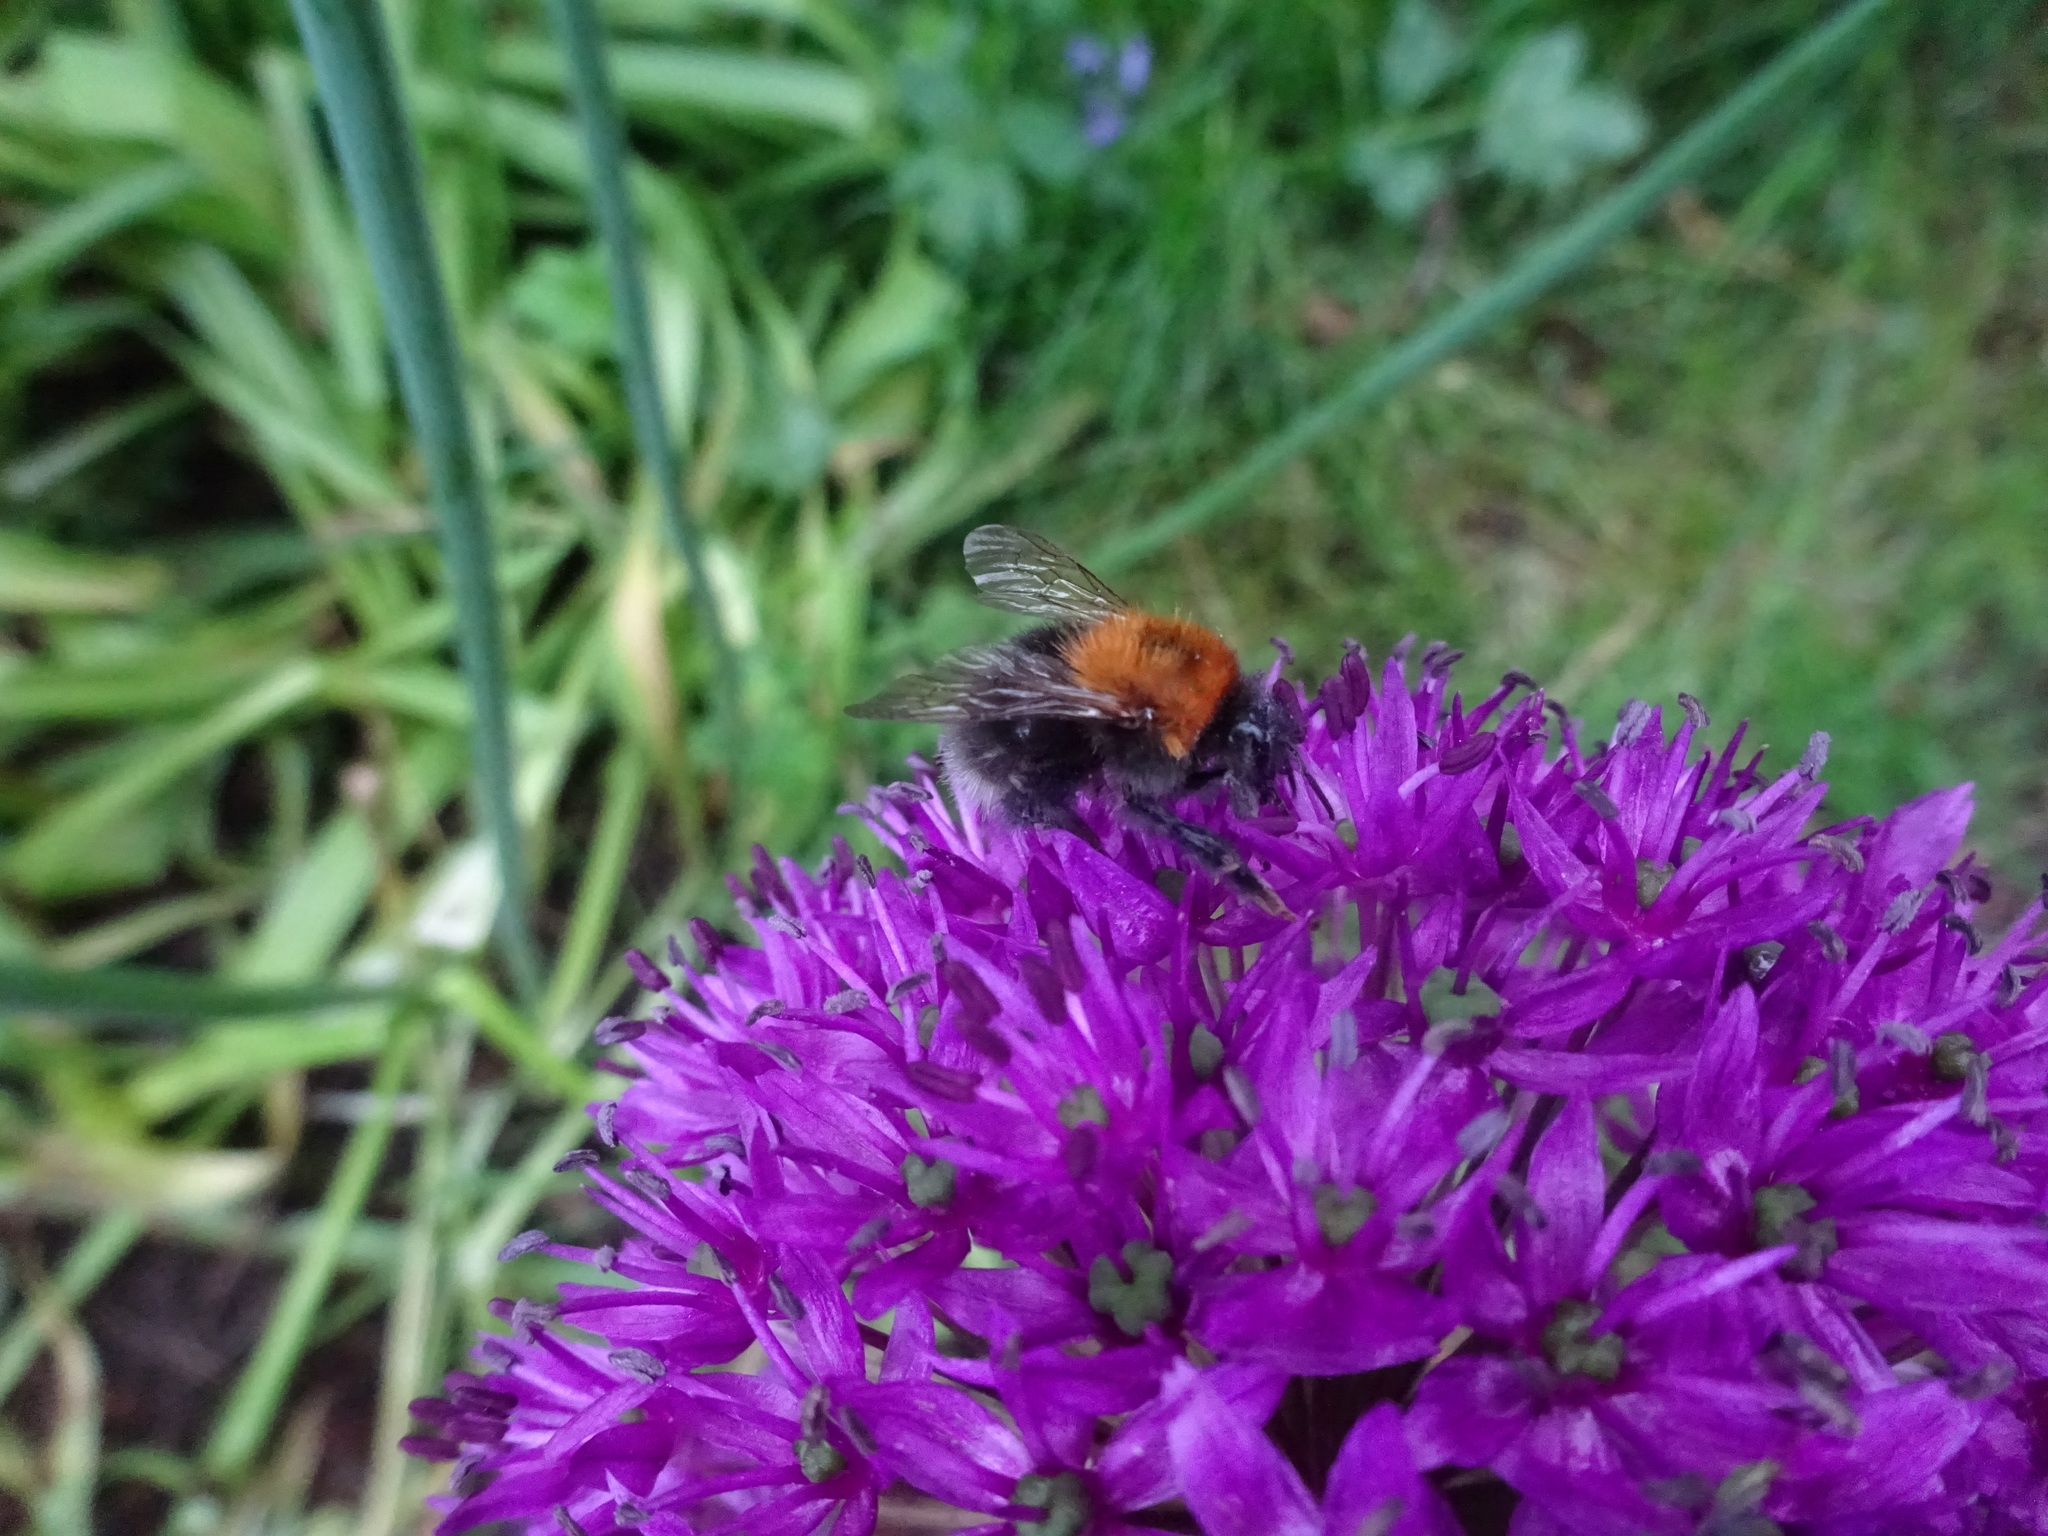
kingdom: Animalia
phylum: Arthropoda
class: Insecta
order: Hymenoptera
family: Apidae
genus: Bombus
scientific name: Bombus hypnorum
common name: New garden bumblebee
